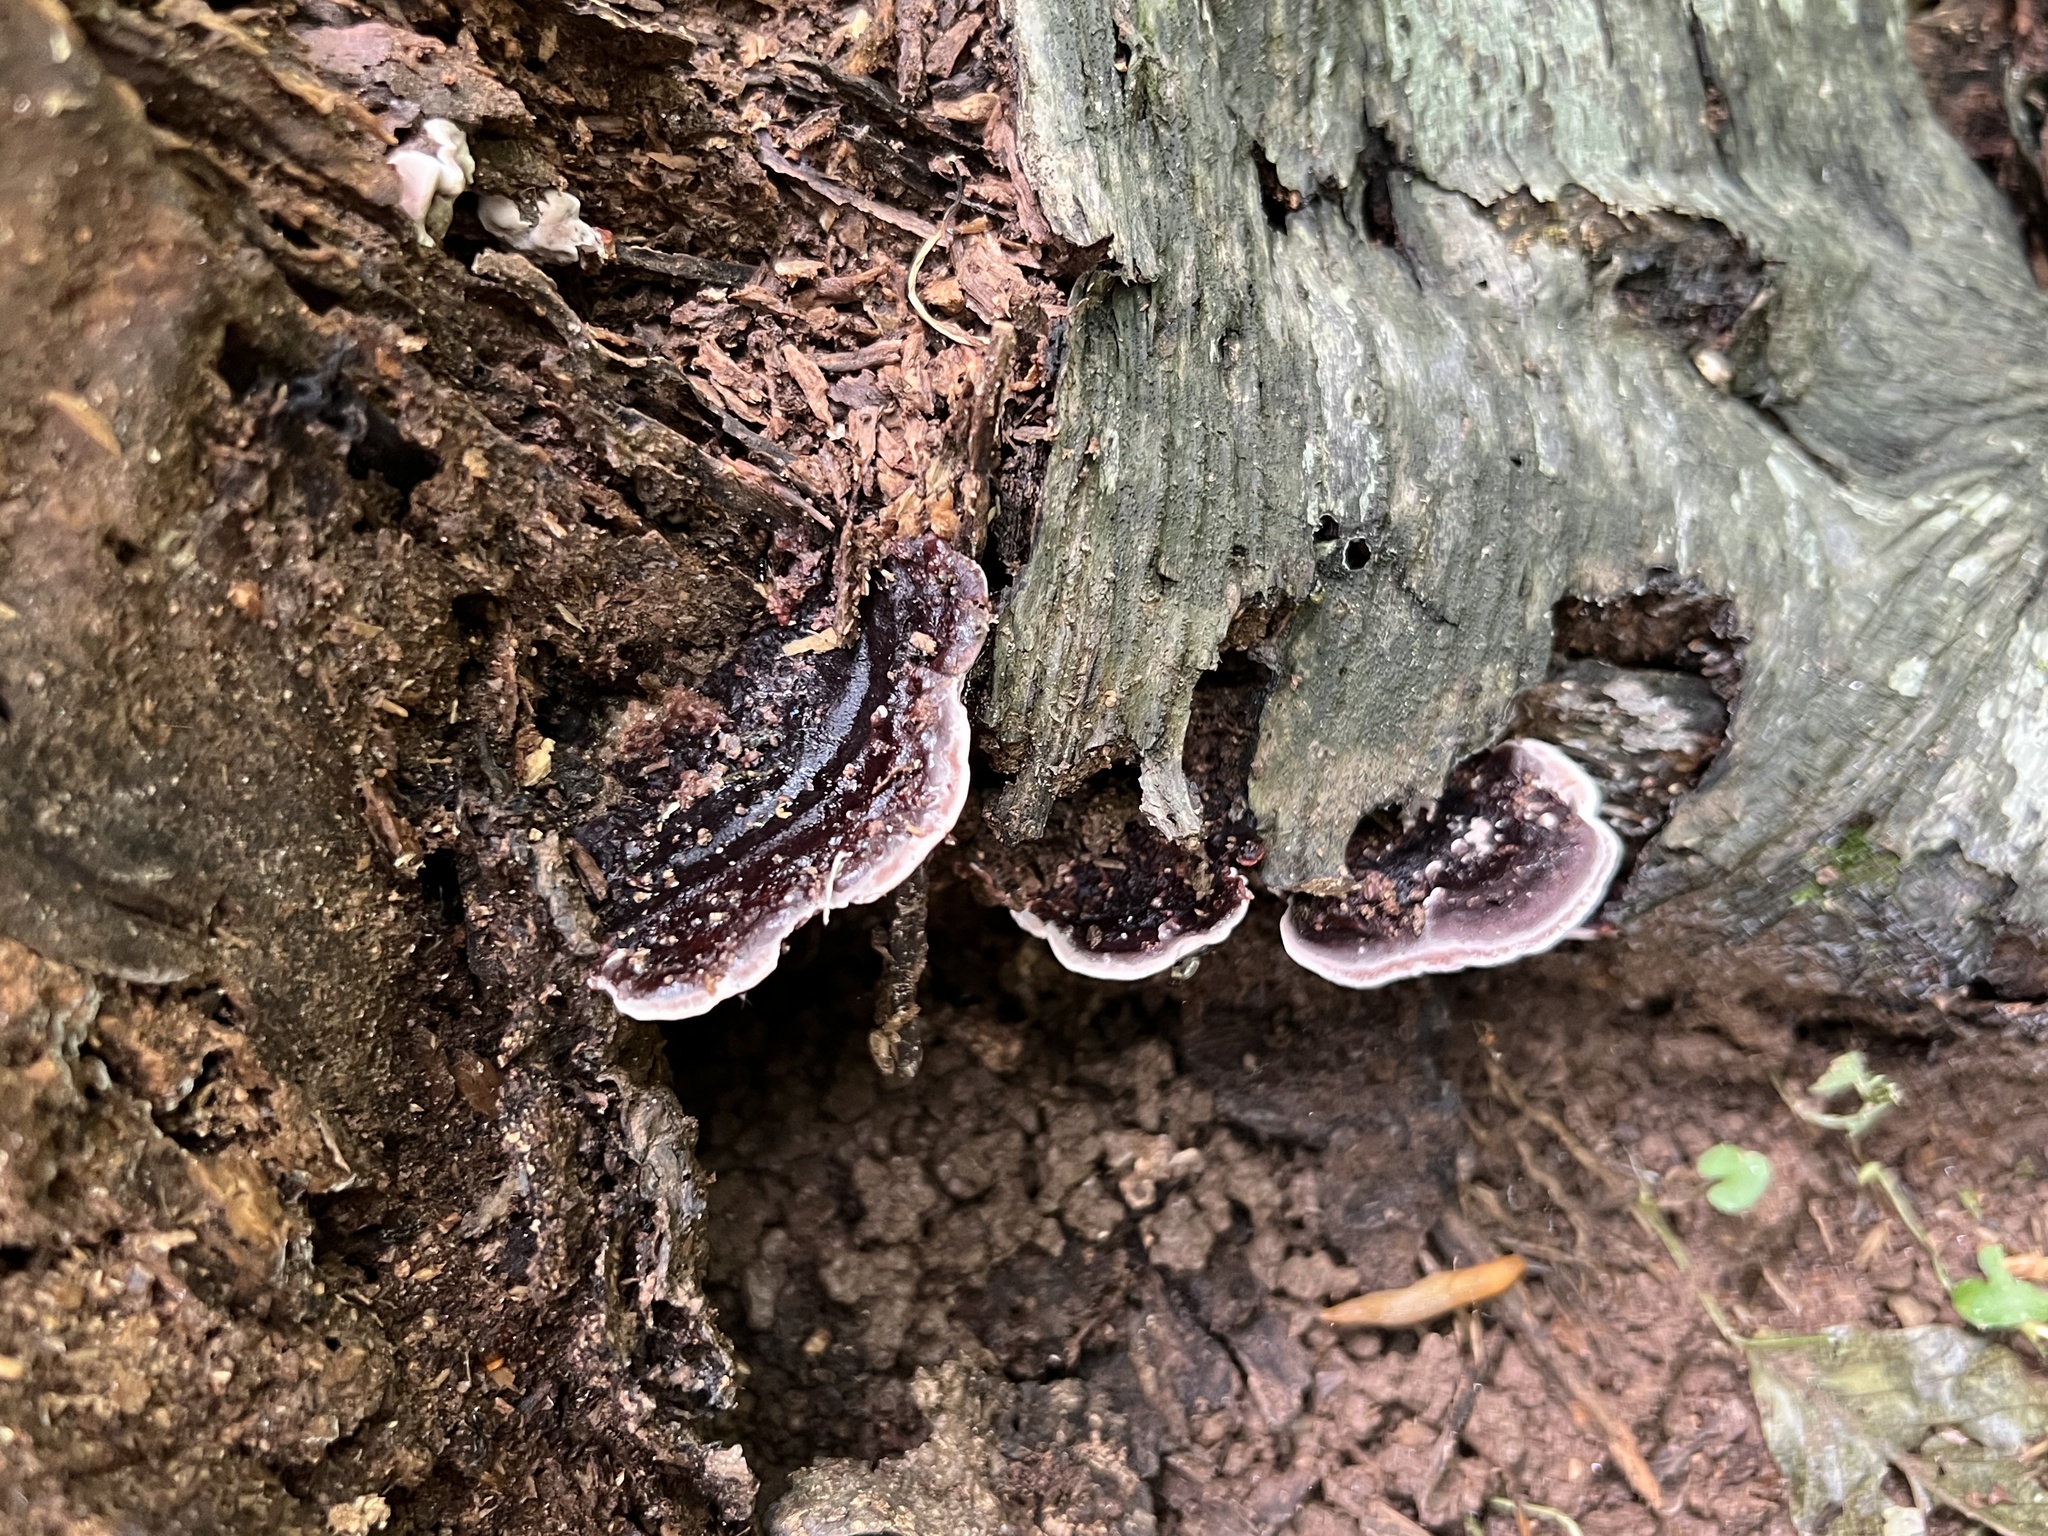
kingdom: Fungi
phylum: Basidiomycota
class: Agaricomycetes
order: Polyporales
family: Steccherinaceae
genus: Nigroporus
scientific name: Nigroporus vinosus
